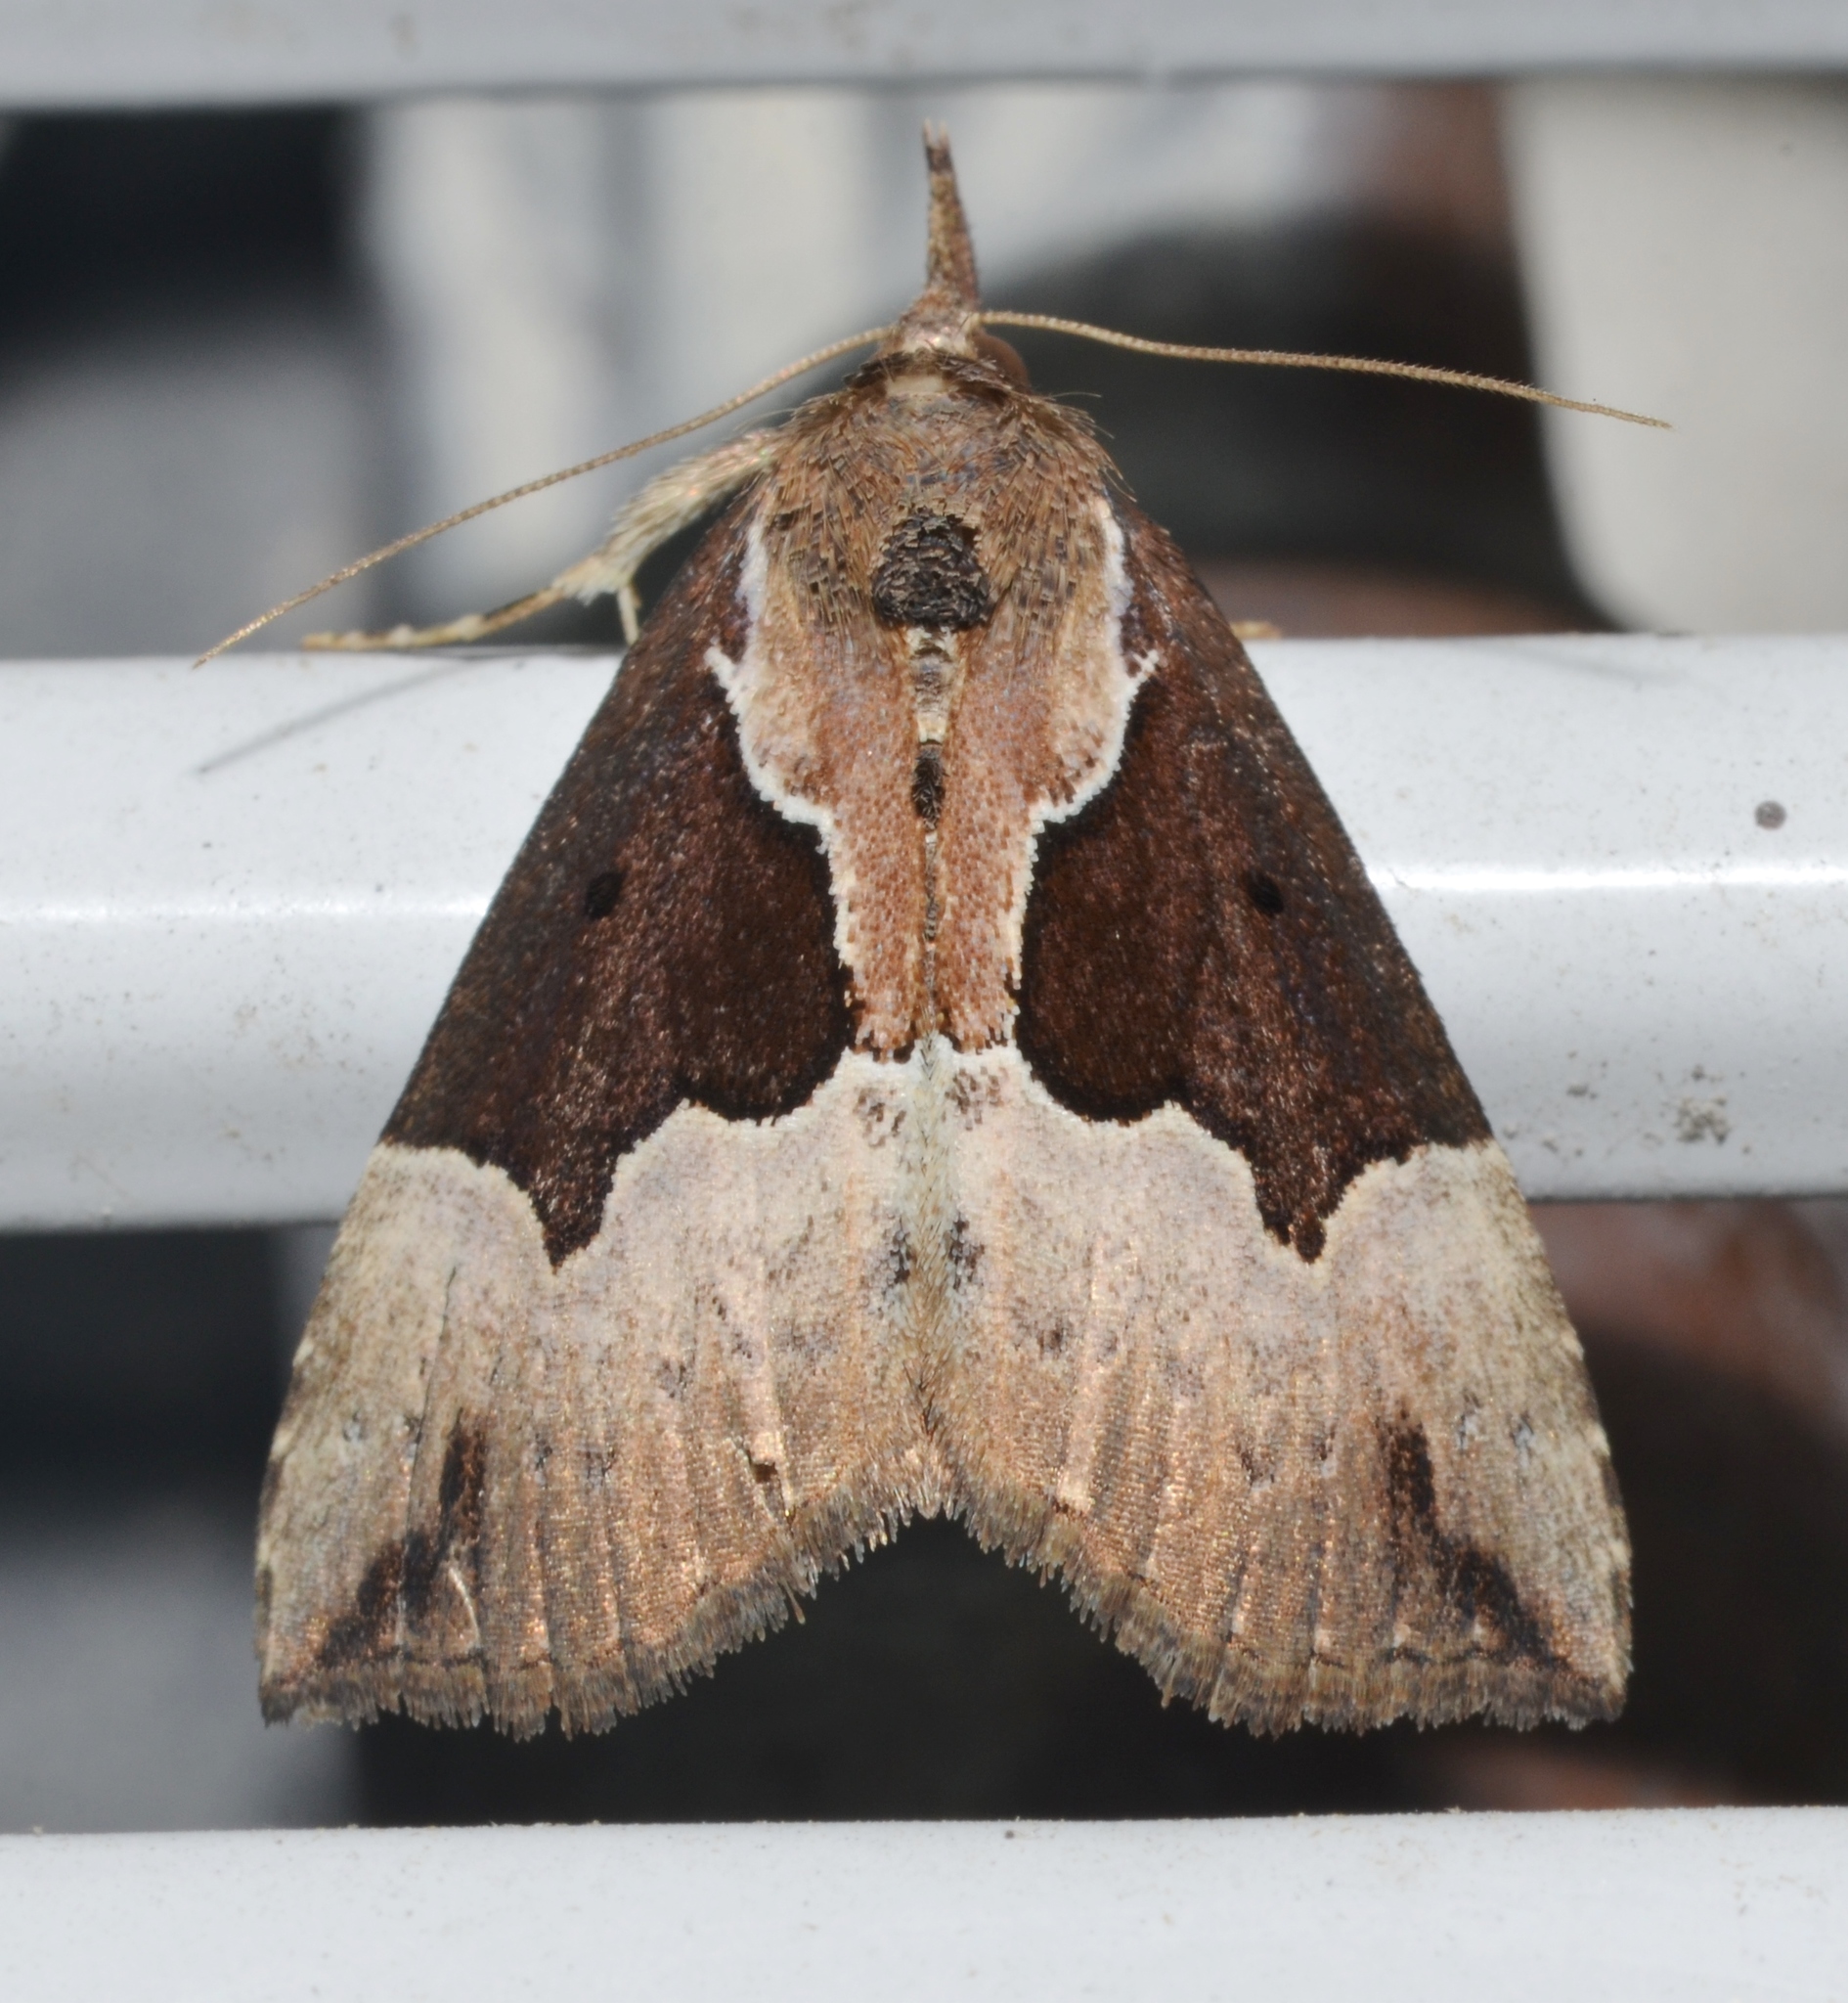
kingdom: Animalia
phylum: Arthropoda
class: Insecta
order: Lepidoptera
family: Erebidae
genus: Hypena
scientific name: Hypena bijugalis
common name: Dimorphic bomolocha moth
